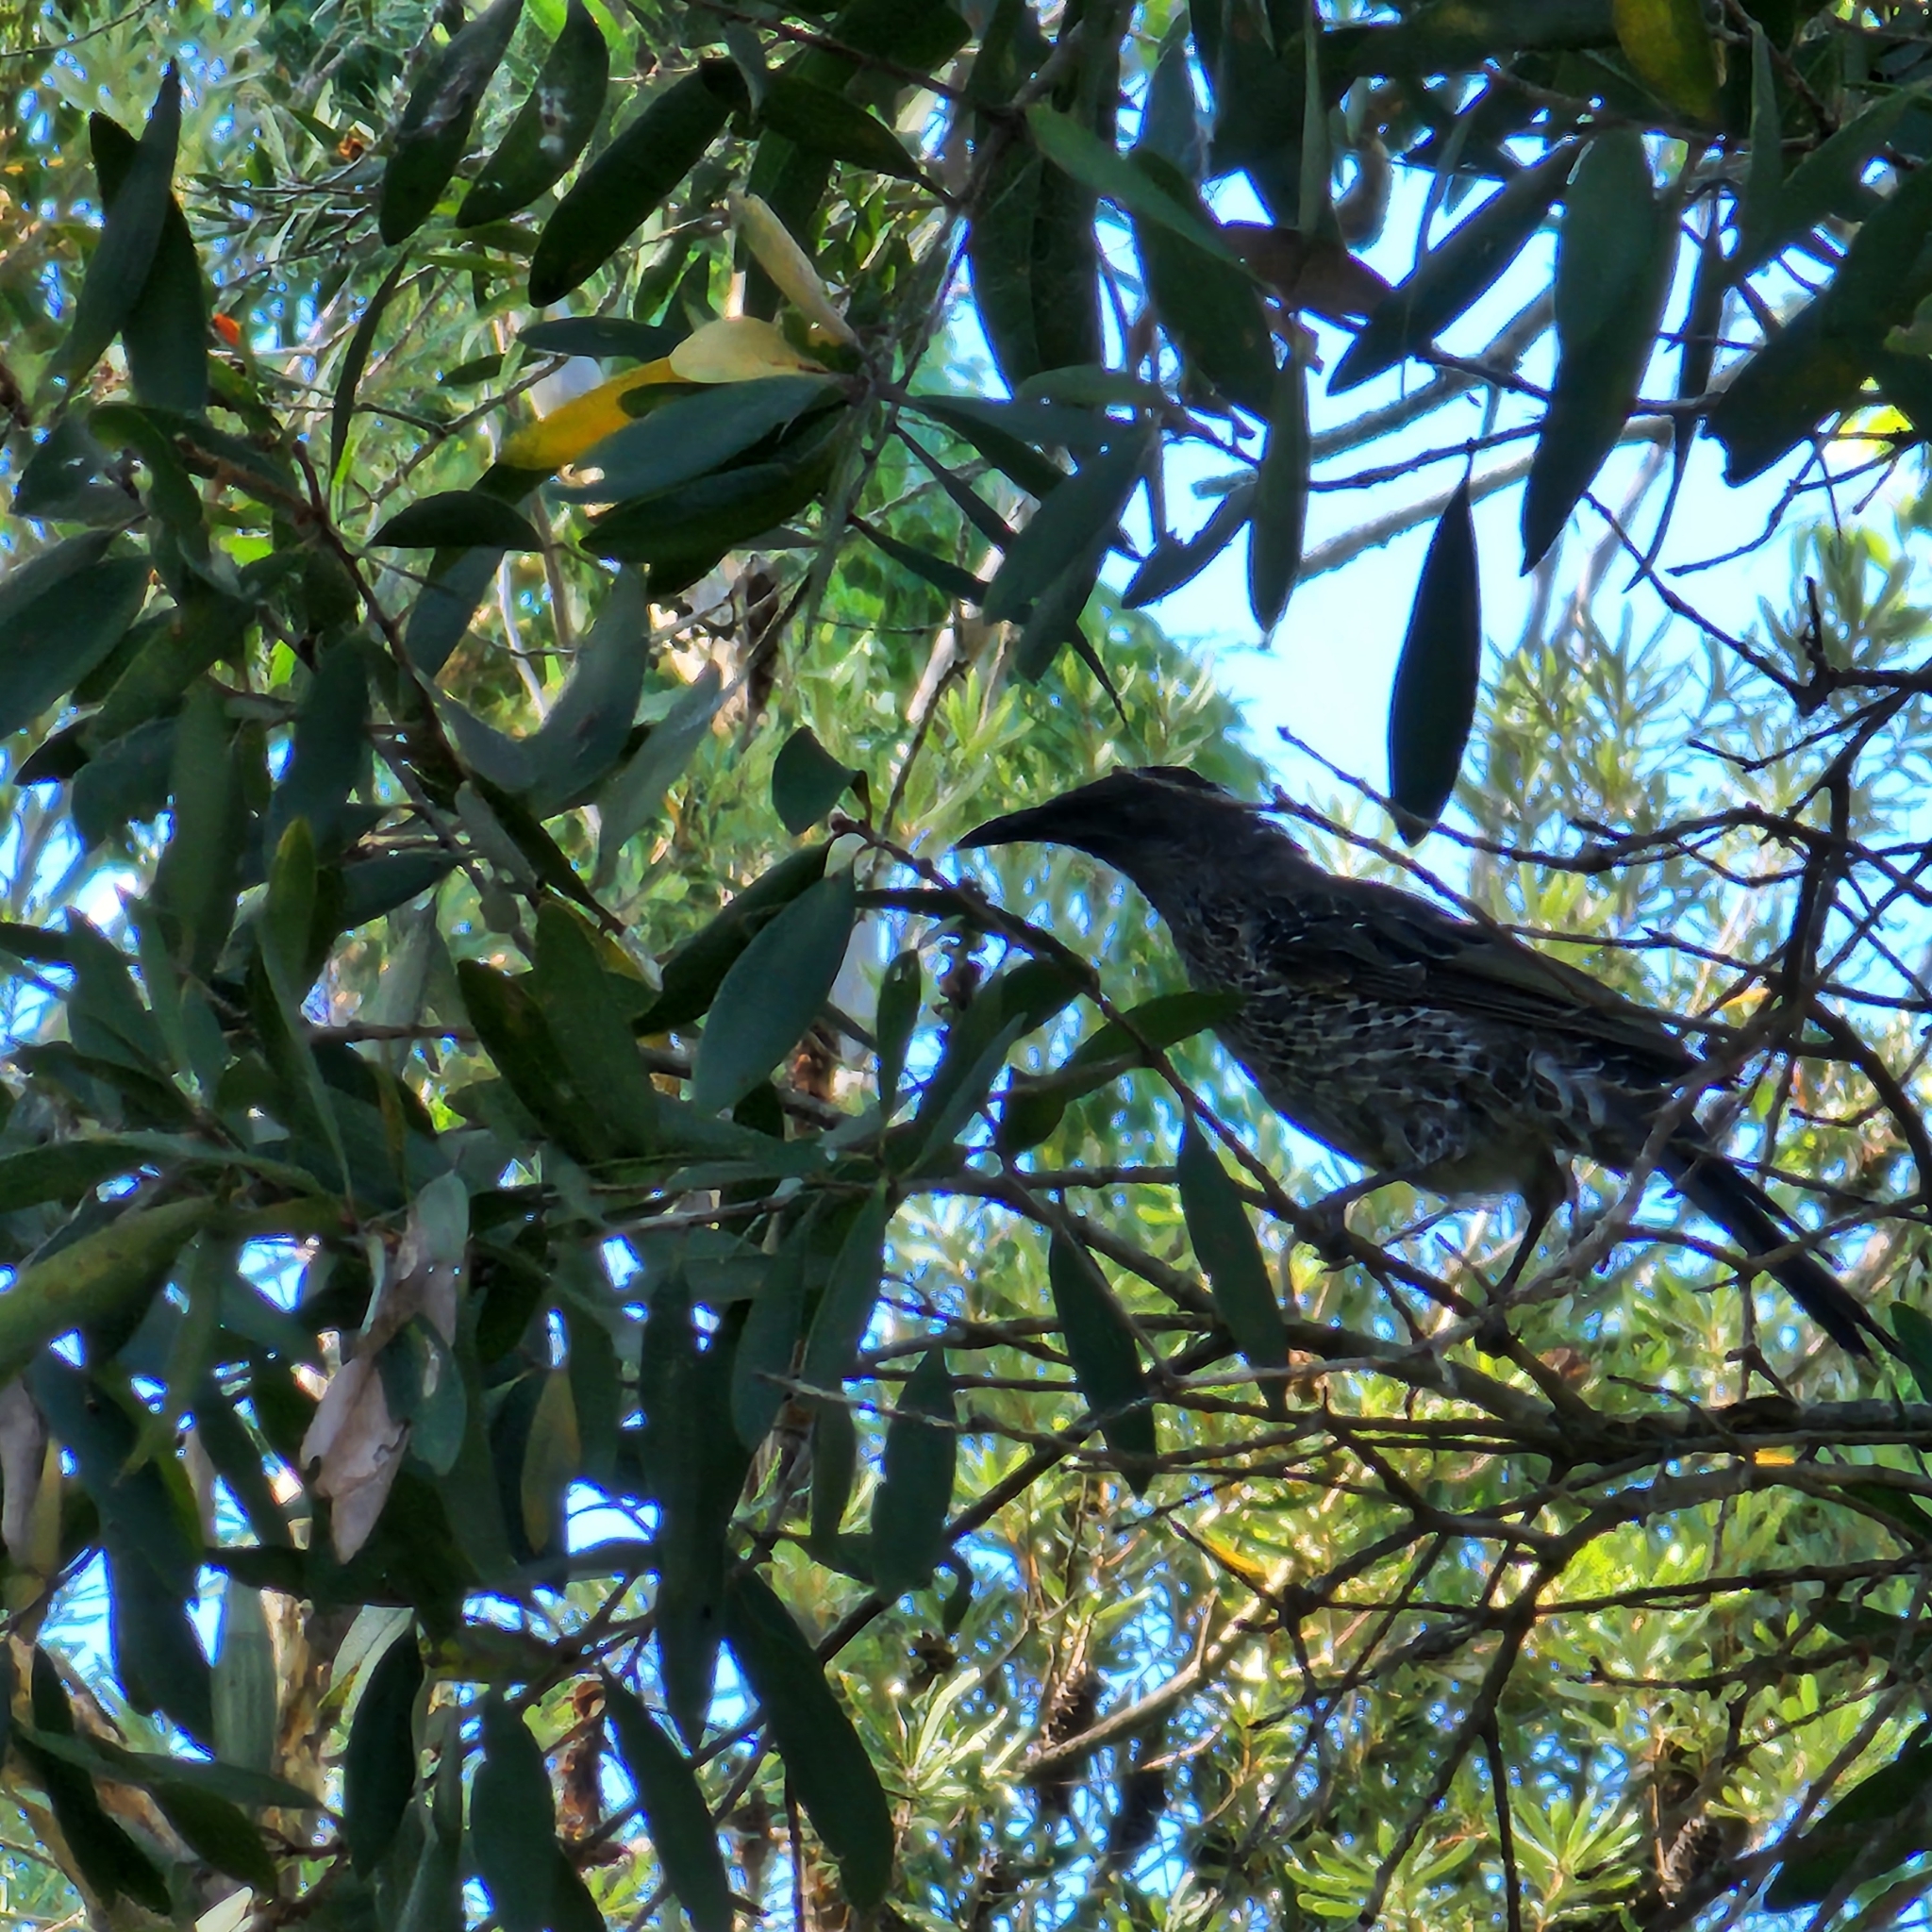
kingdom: Animalia
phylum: Chordata
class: Aves
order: Passeriformes
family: Meliphagidae
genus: Anthochaera
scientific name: Anthochaera chrysoptera
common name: Little wattlebird
